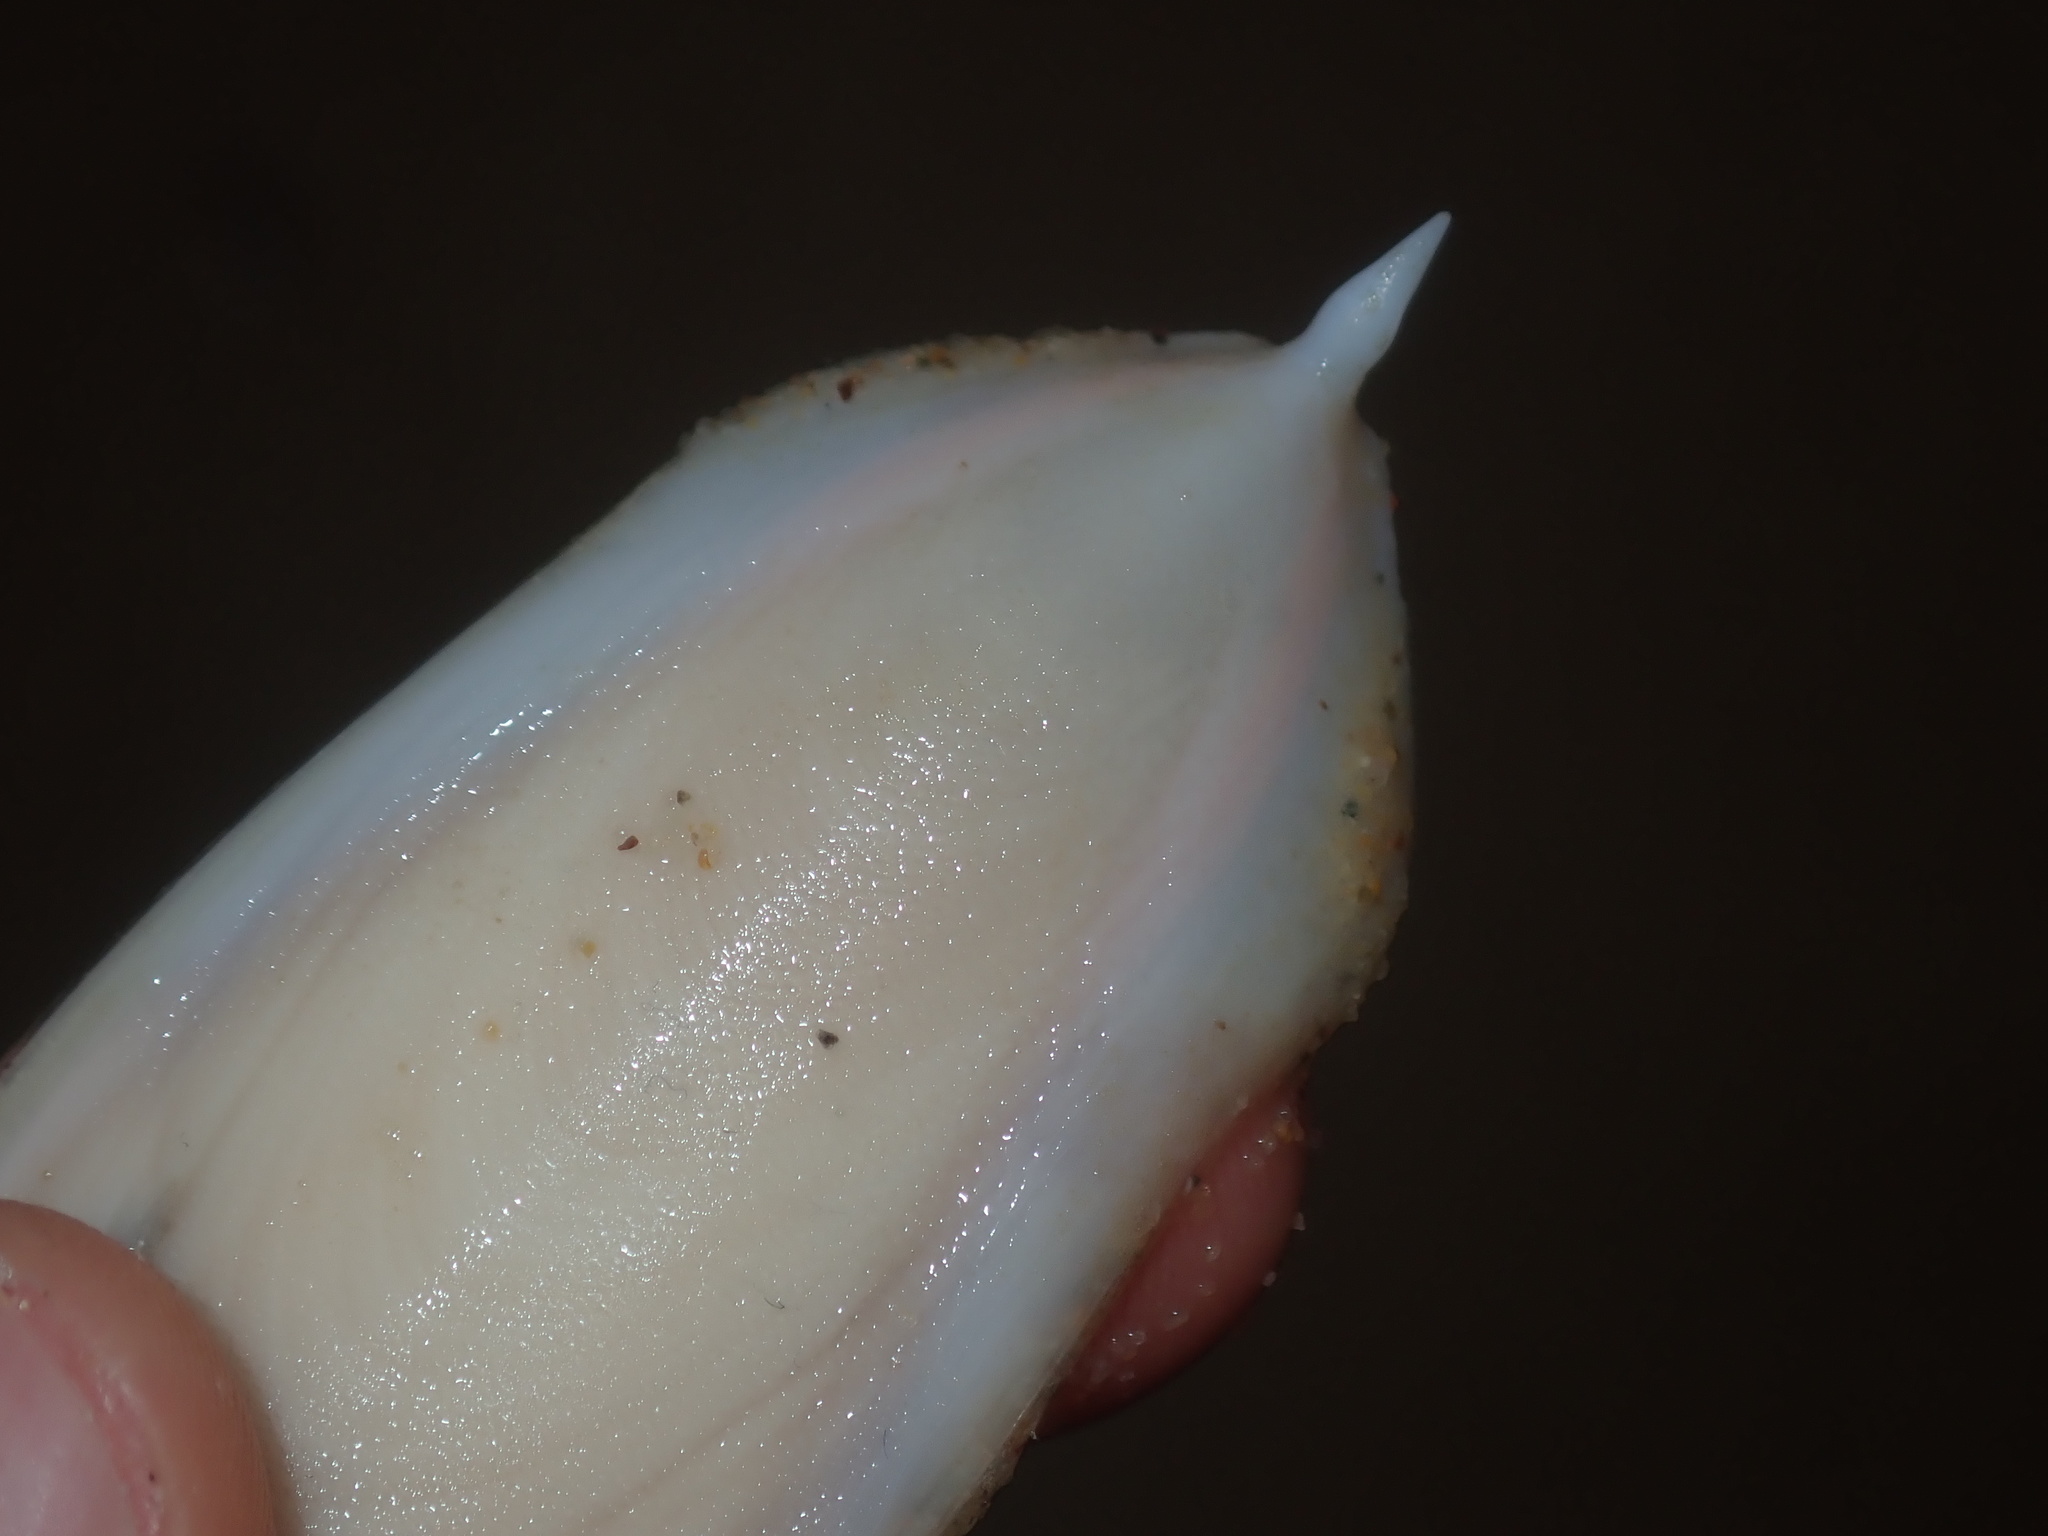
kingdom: Animalia
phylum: Mollusca
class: Cephalopoda
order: Sepiida
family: Sepiidae
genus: Ascarosepion
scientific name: Ascarosepion rozella
